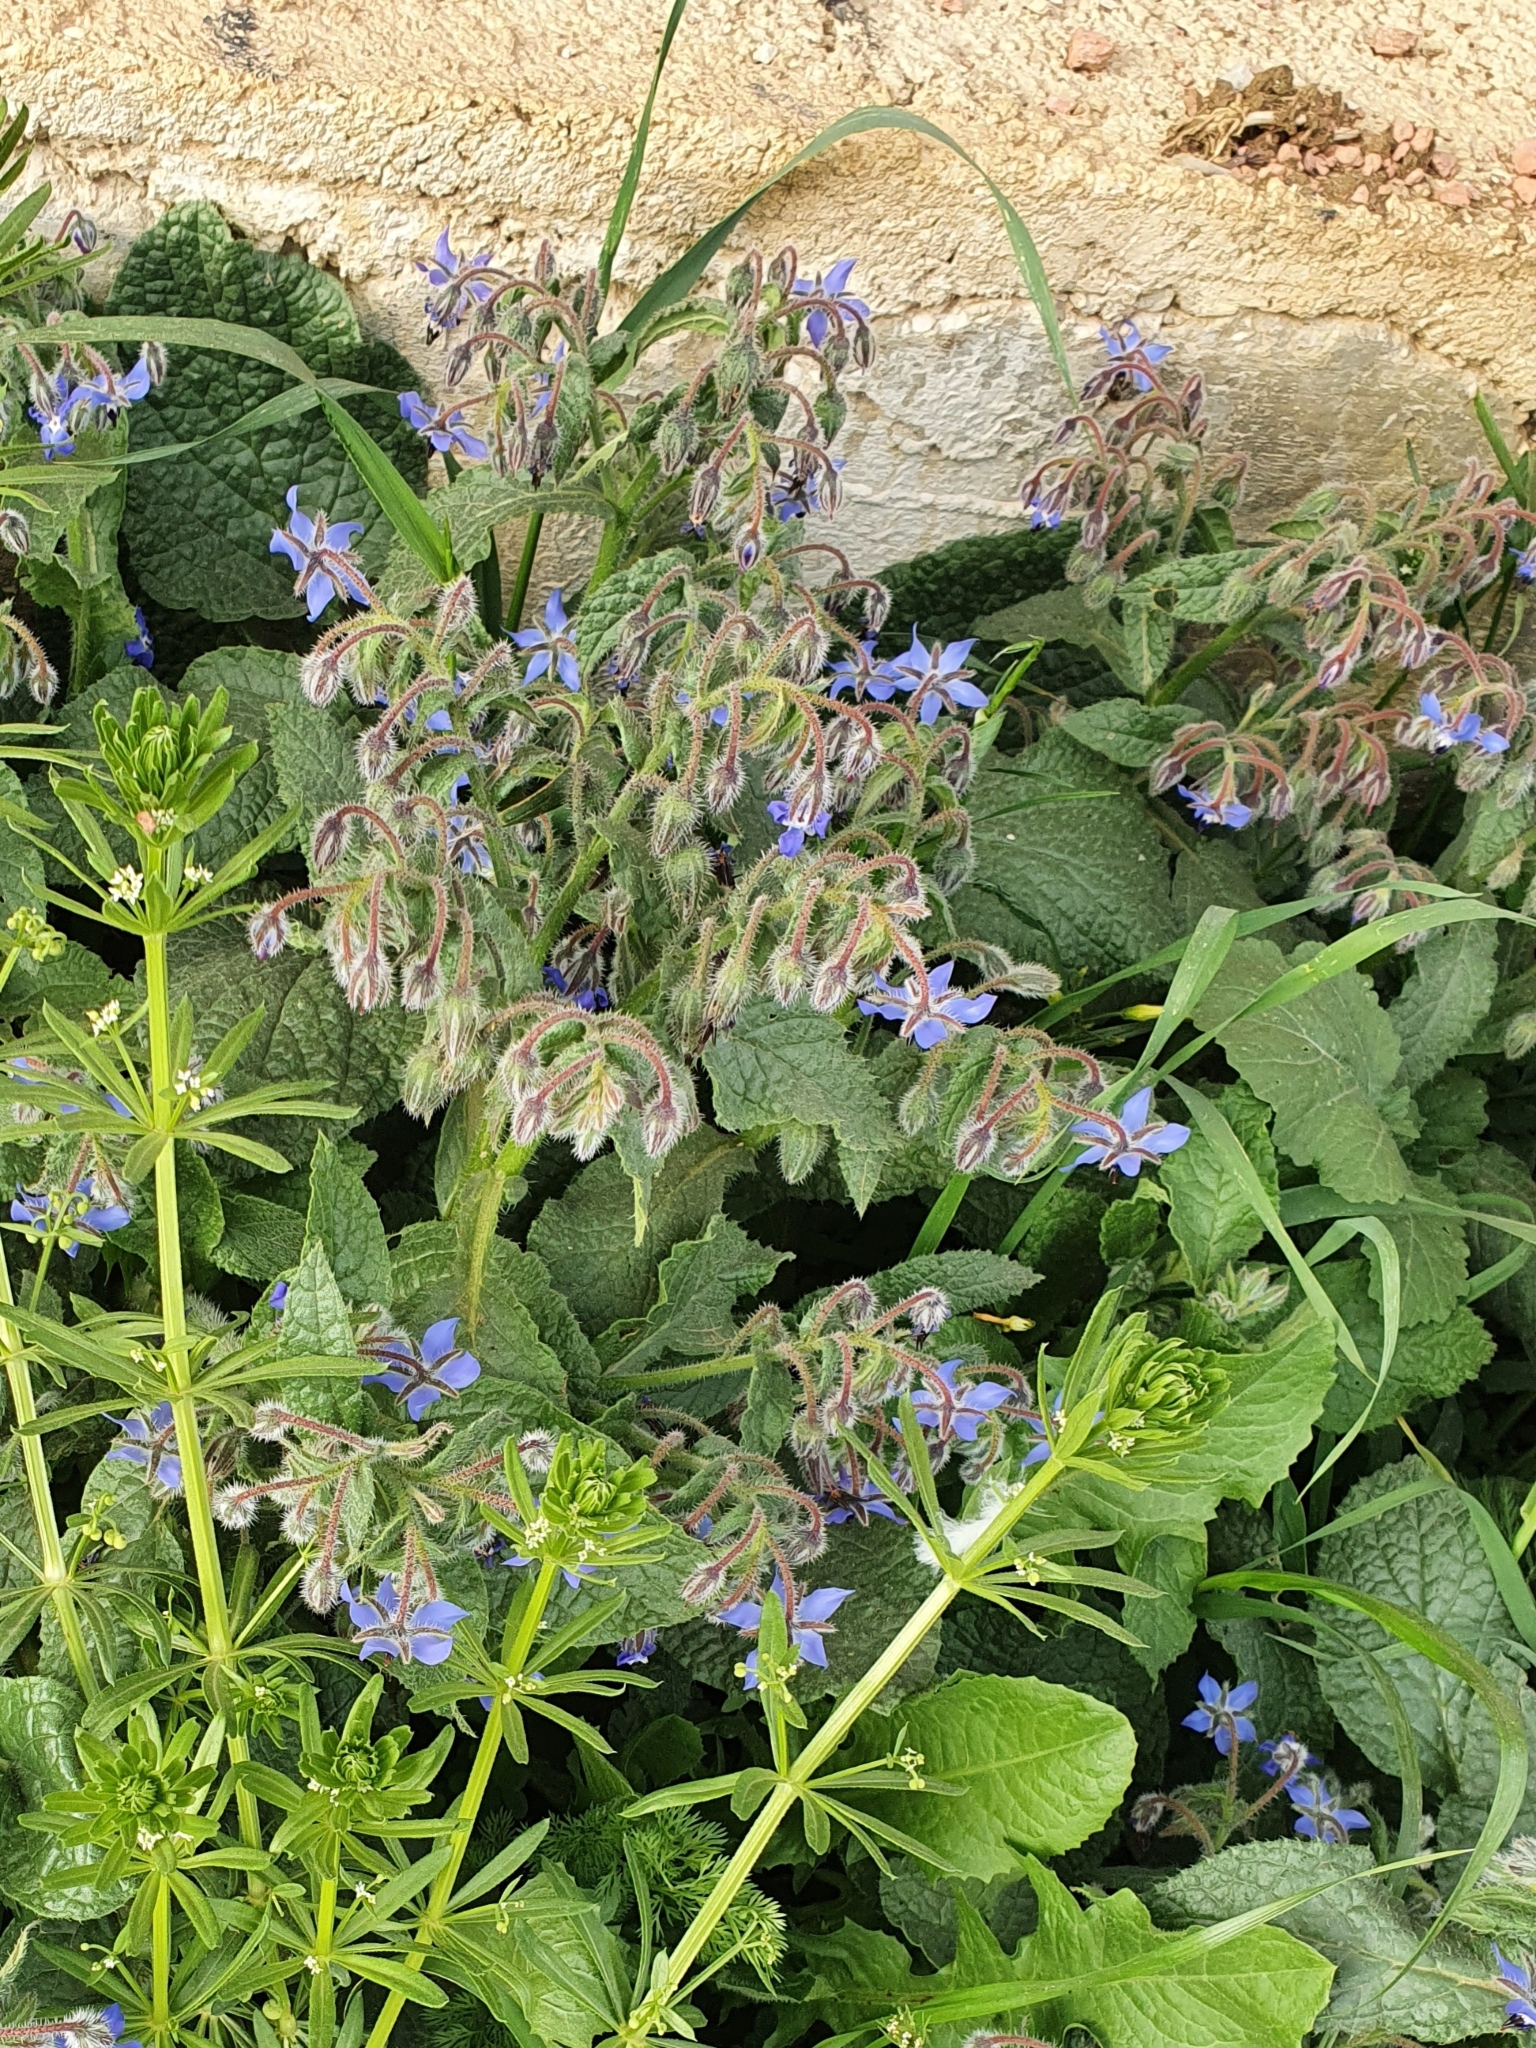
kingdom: Plantae
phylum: Tracheophyta
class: Magnoliopsida
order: Boraginales
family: Boraginaceae
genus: Borago
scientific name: Borago officinalis
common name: Borage
